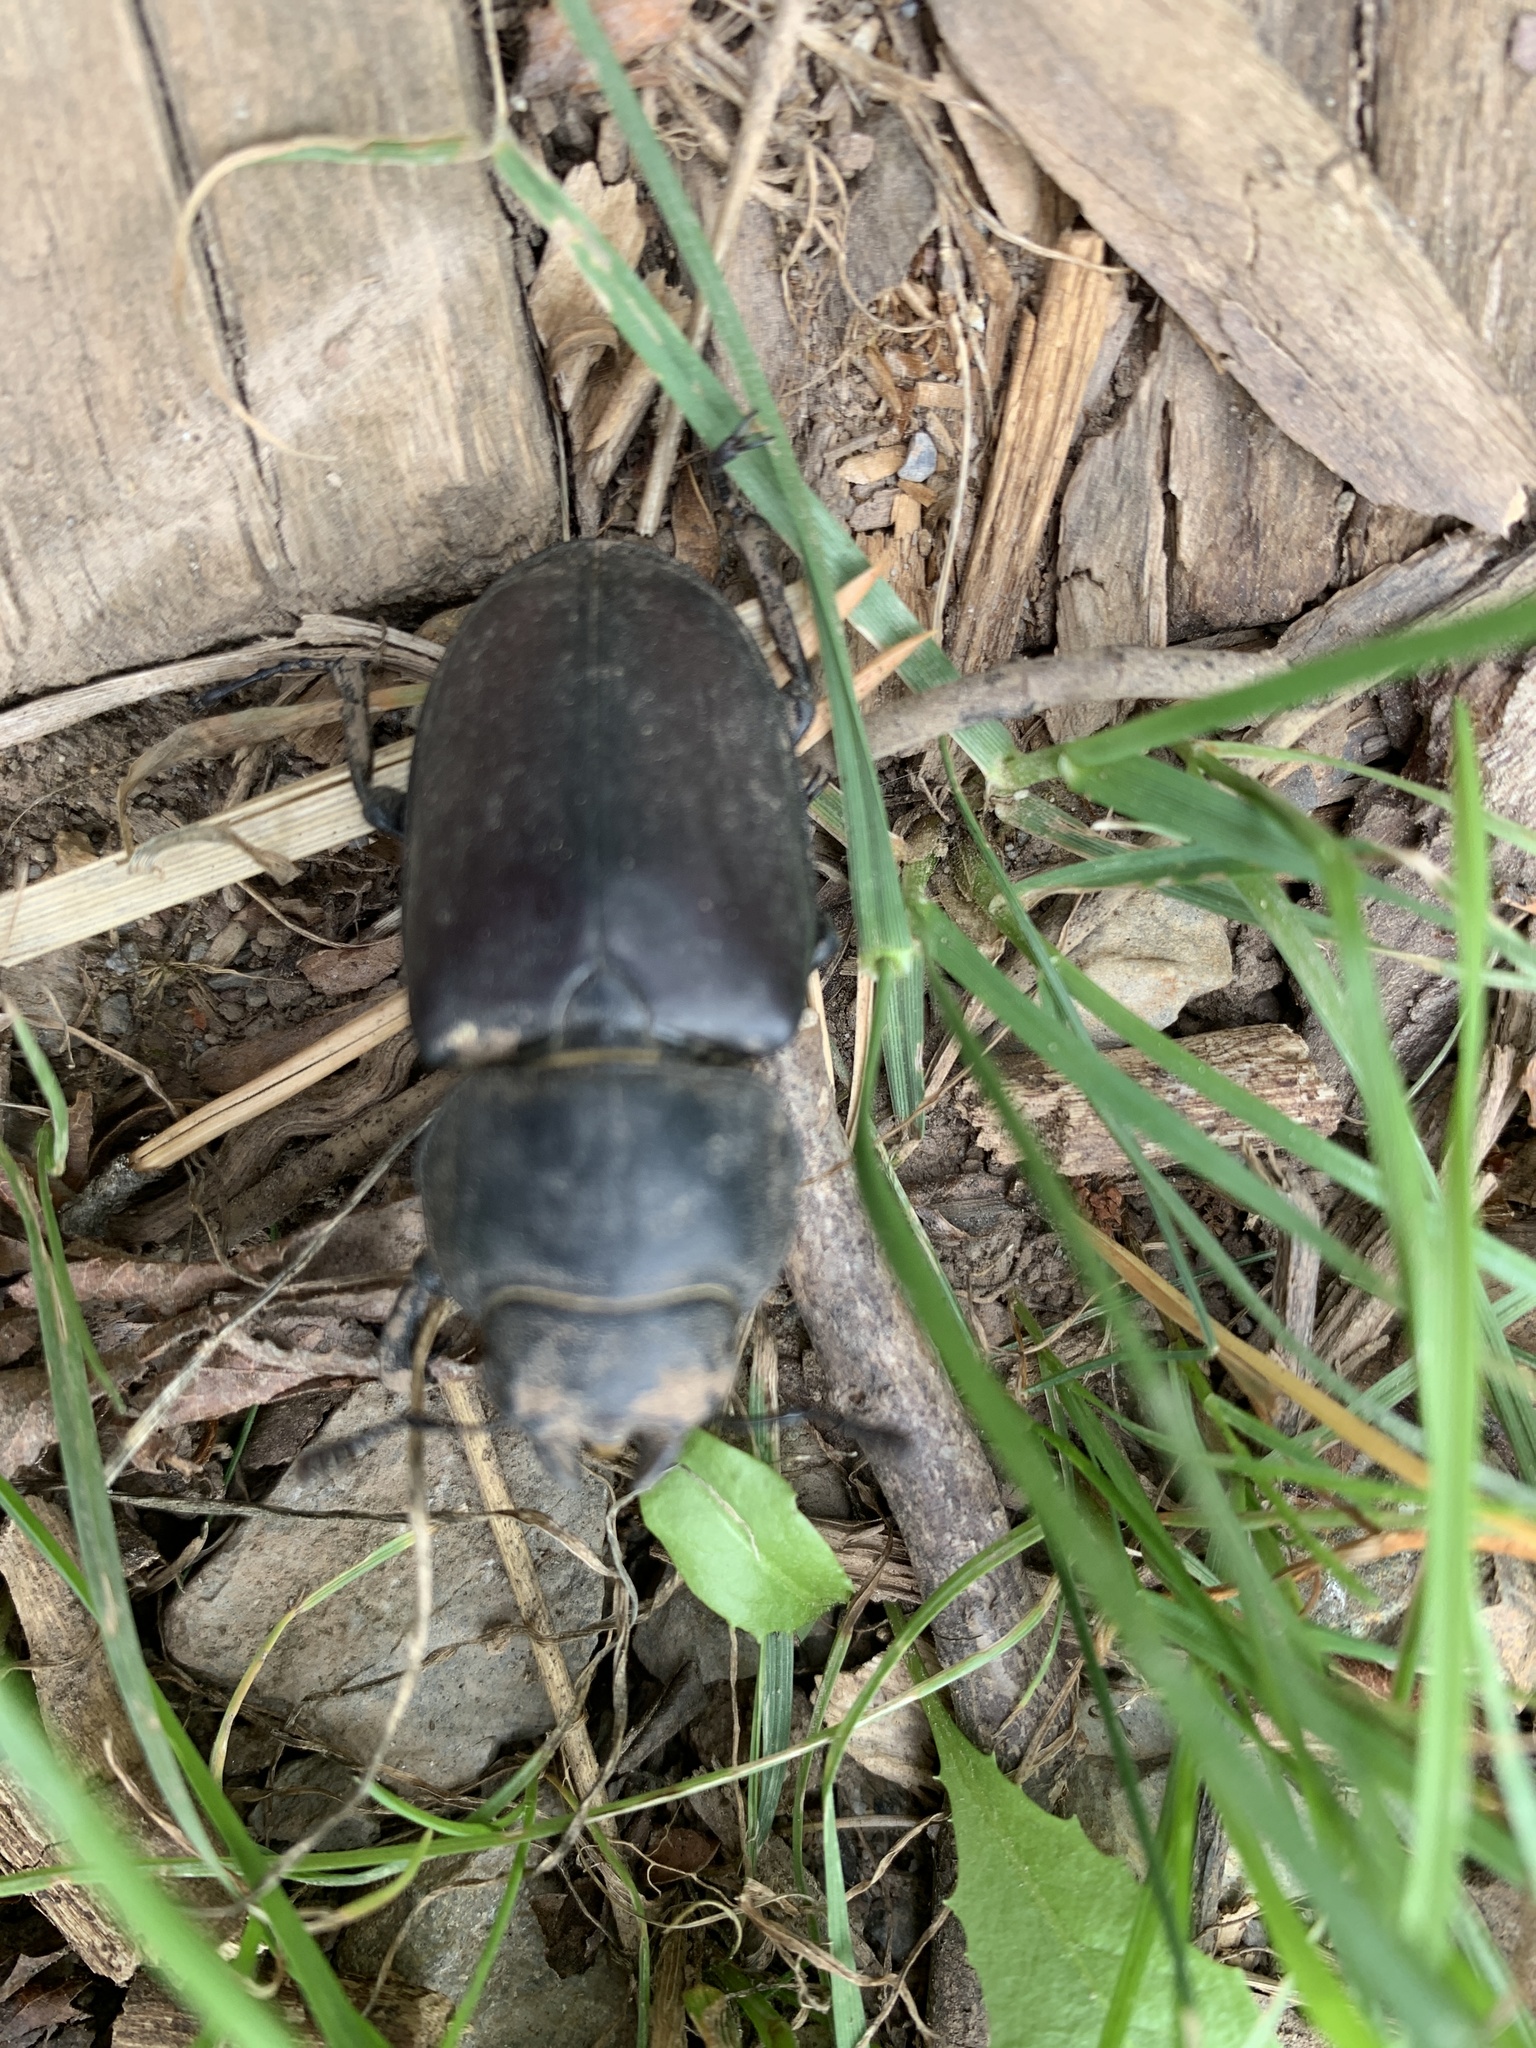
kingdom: Animalia
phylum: Arthropoda
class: Insecta
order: Coleoptera
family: Lucanidae
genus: Lucanus
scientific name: Lucanus cervus
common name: Stag beetle
